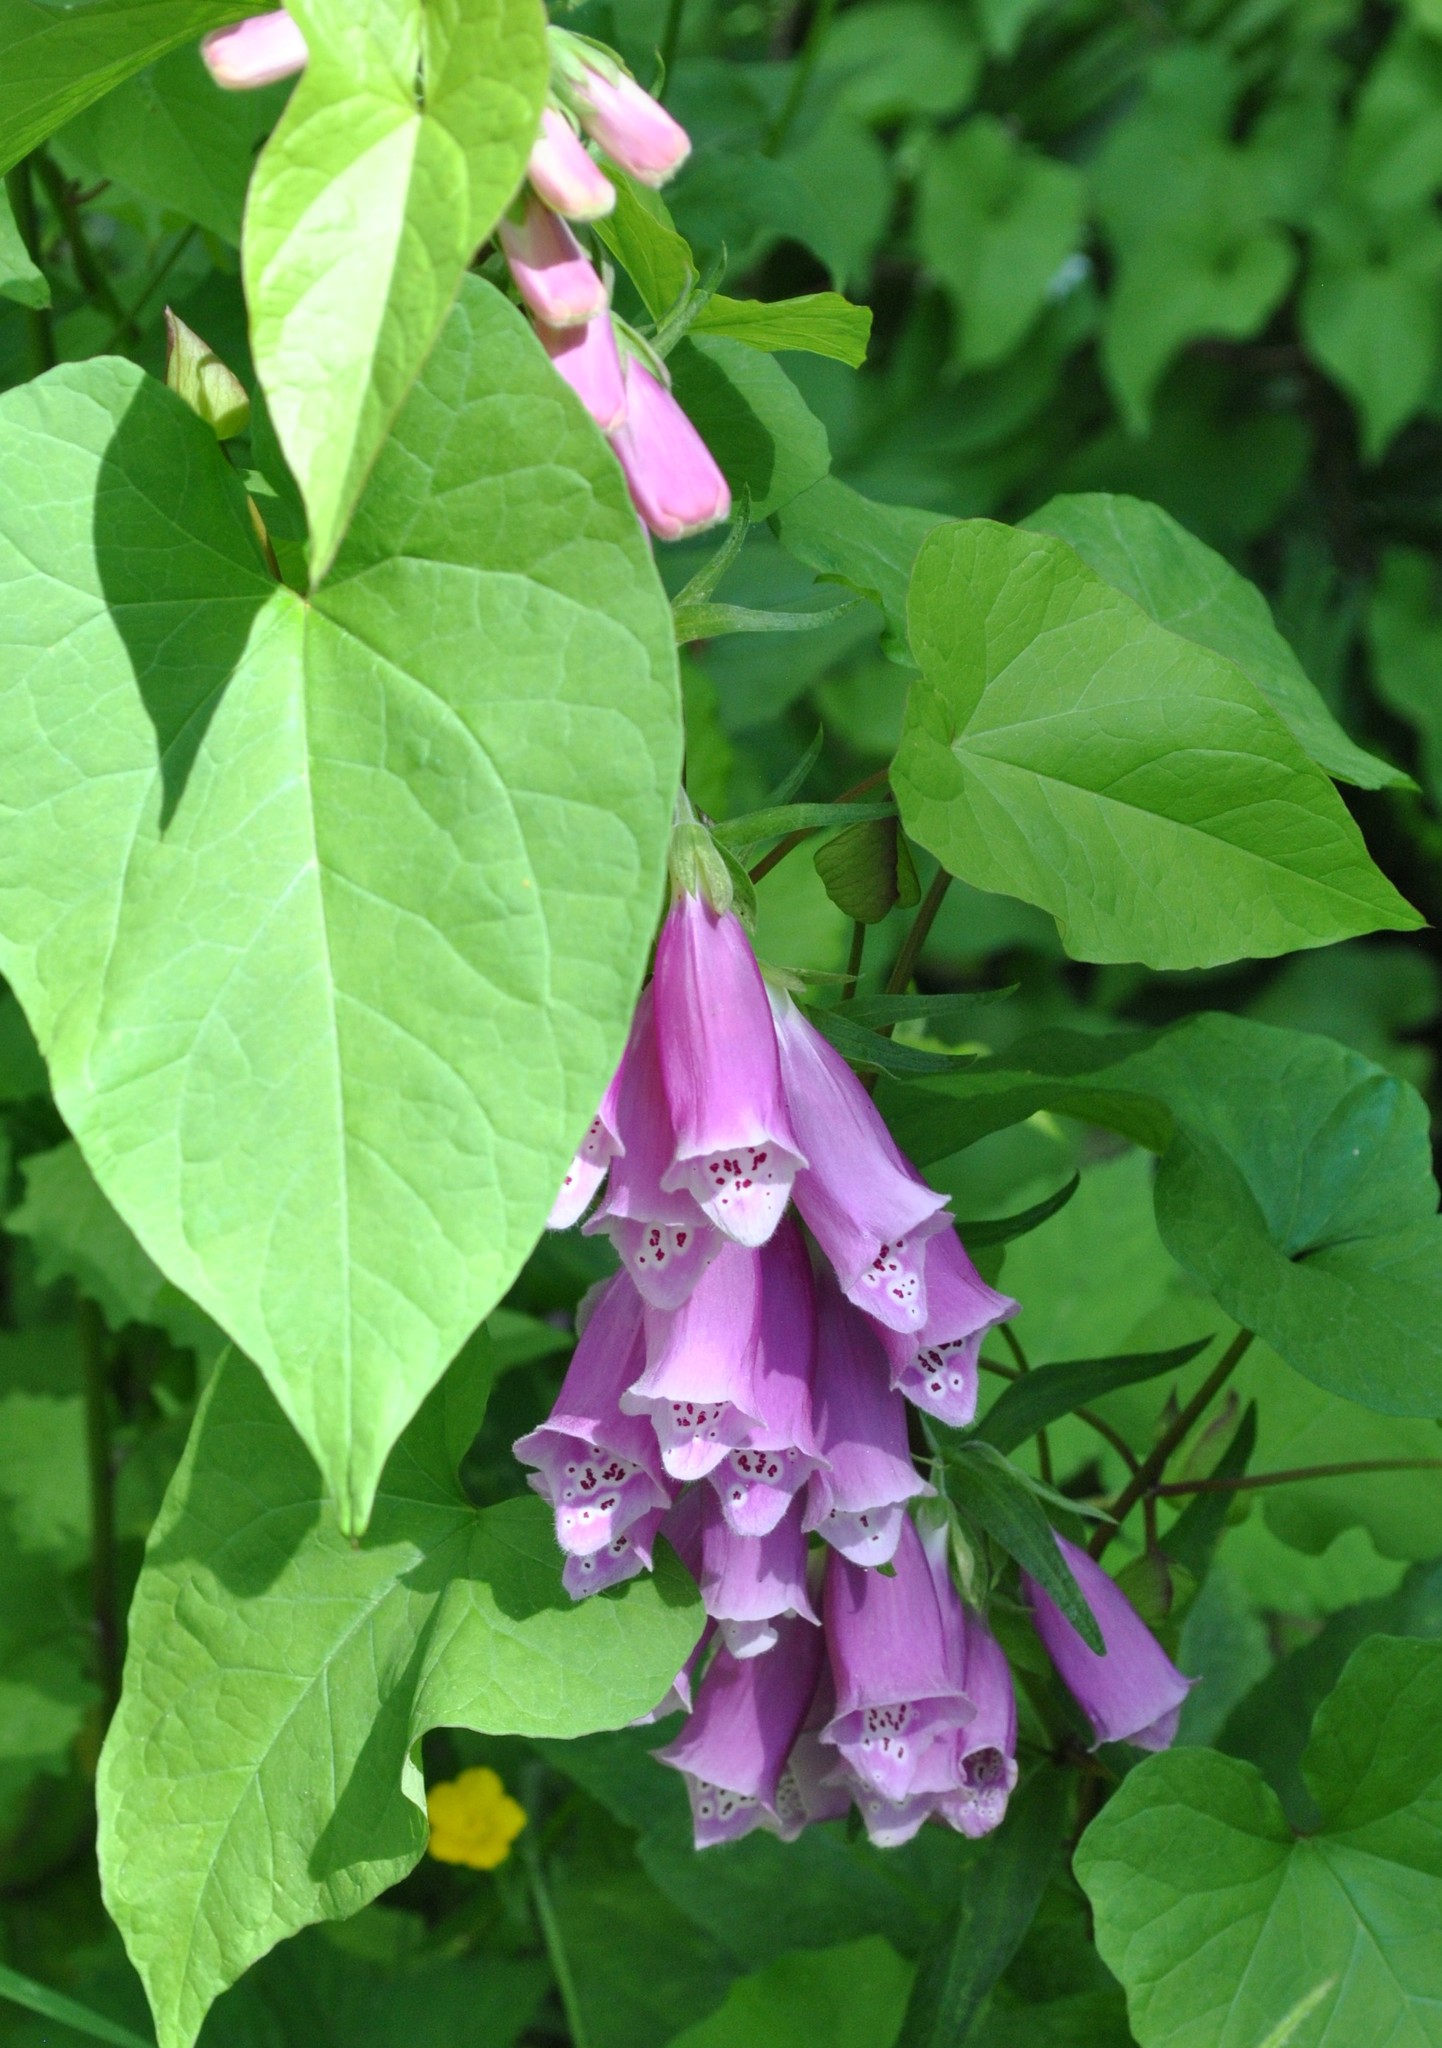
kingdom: Plantae
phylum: Tracheophyta
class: Magnoliopsida
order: Lamiales
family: Plantaginaceae
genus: Digitalis
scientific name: Digitalis purpurea
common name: Foxglove
